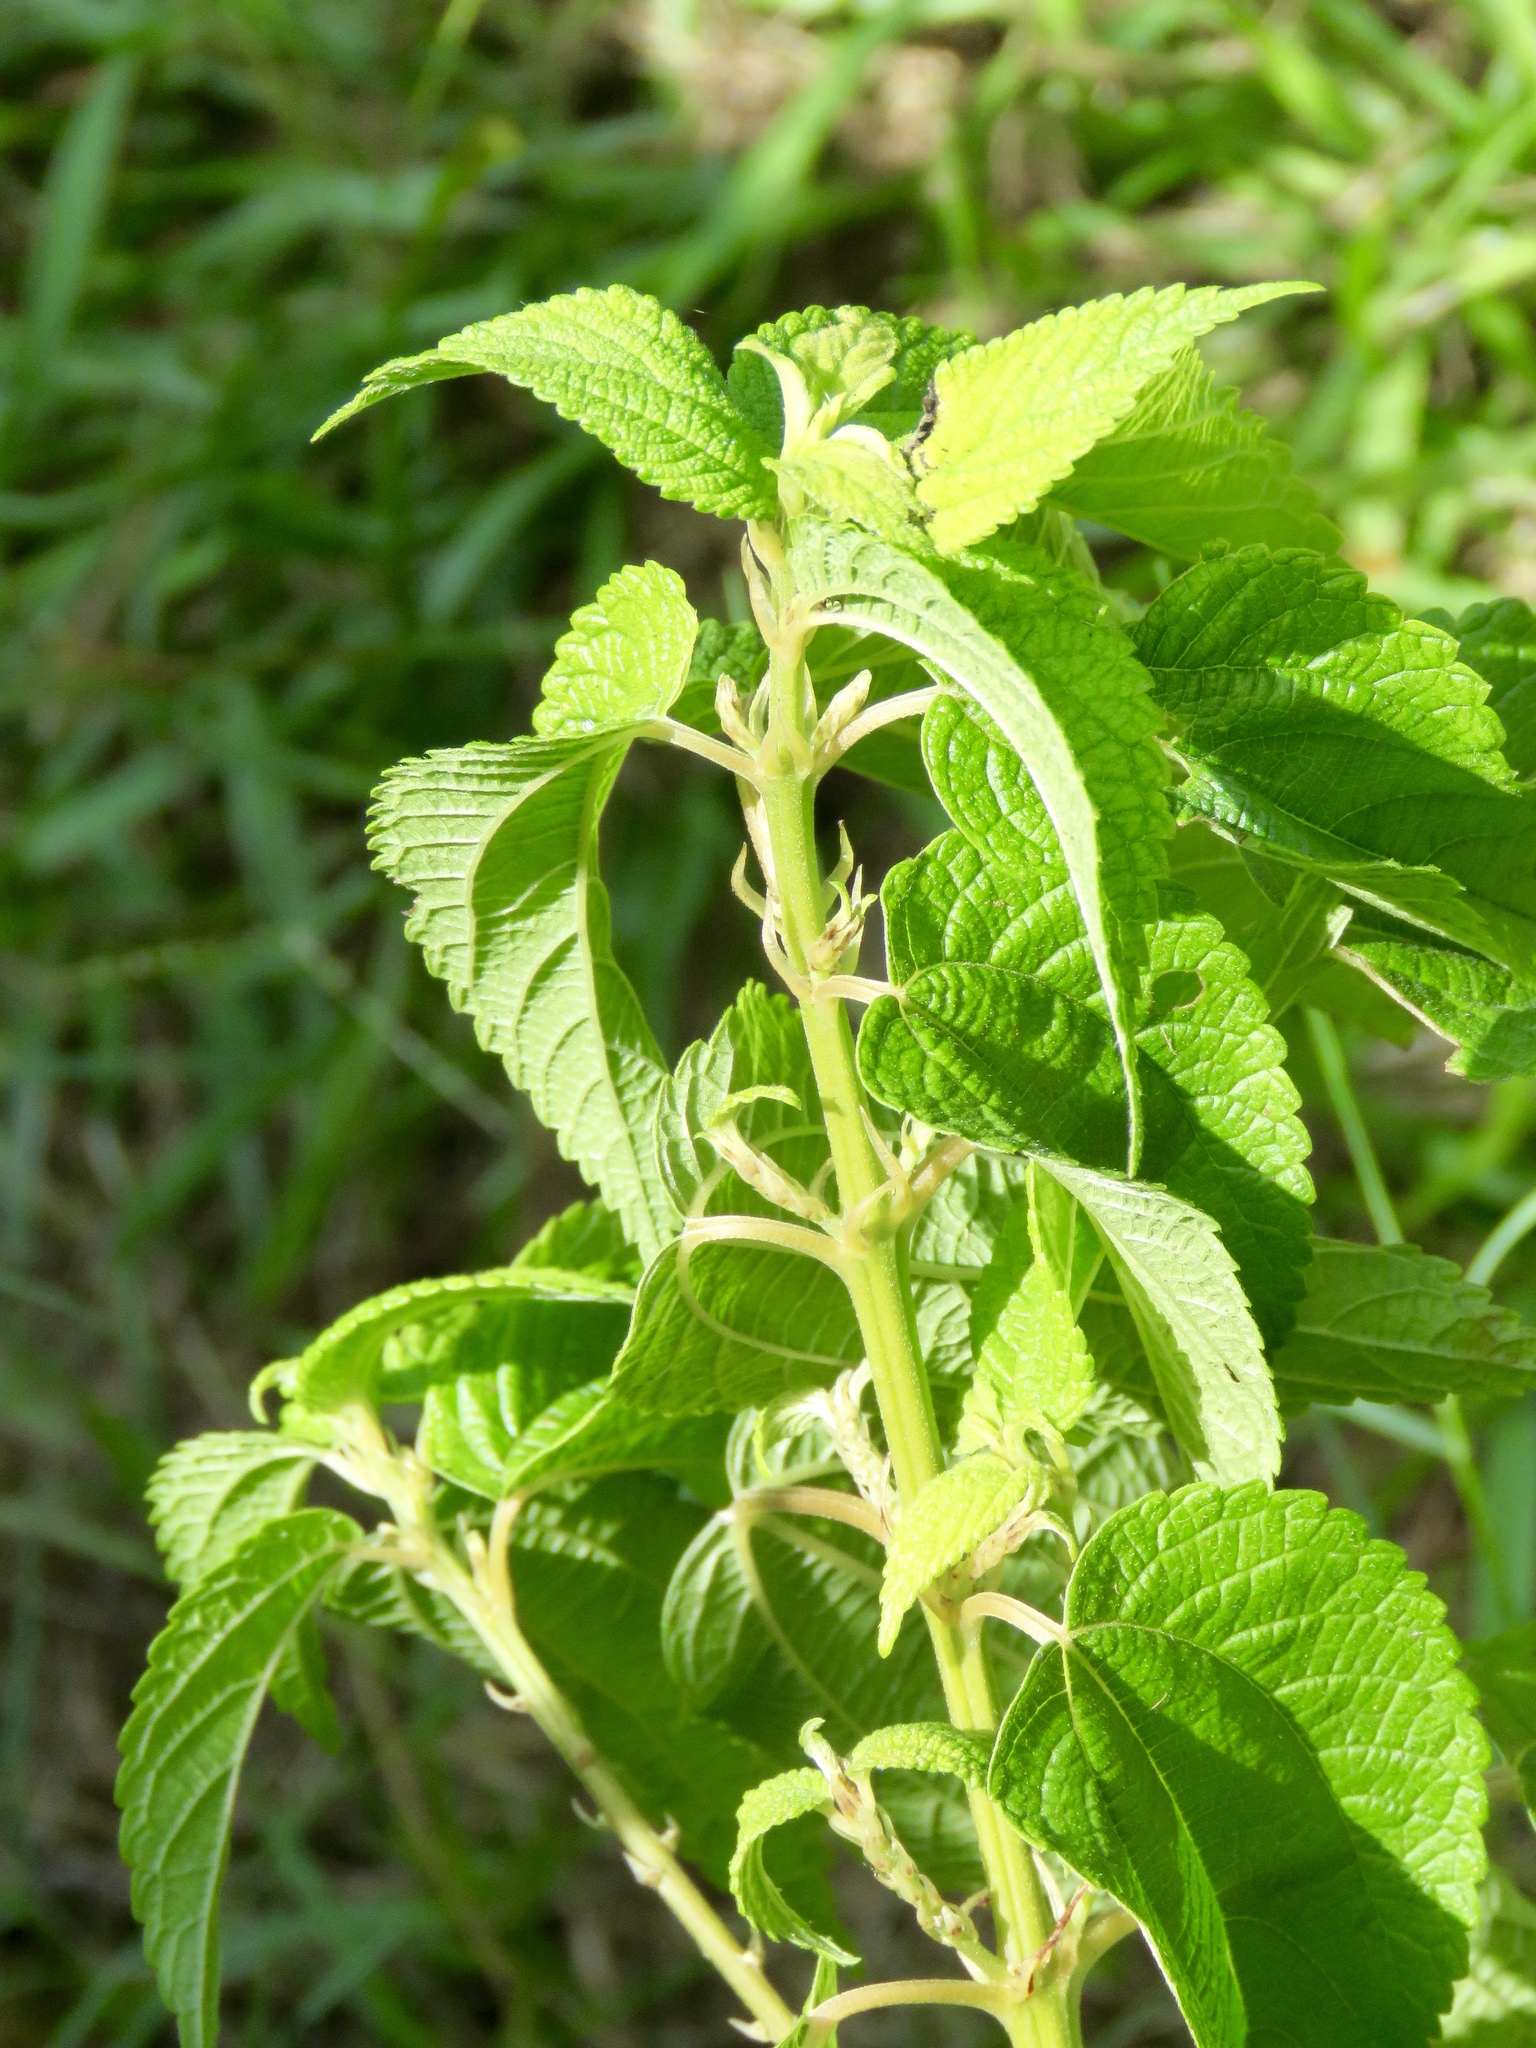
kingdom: Plantae
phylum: Tracheophyta
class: Magnoliopsida
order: Rosales
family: Urticaceae
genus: Boehmeria
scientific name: Boehmeria cylindrica
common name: Bog-hemp
